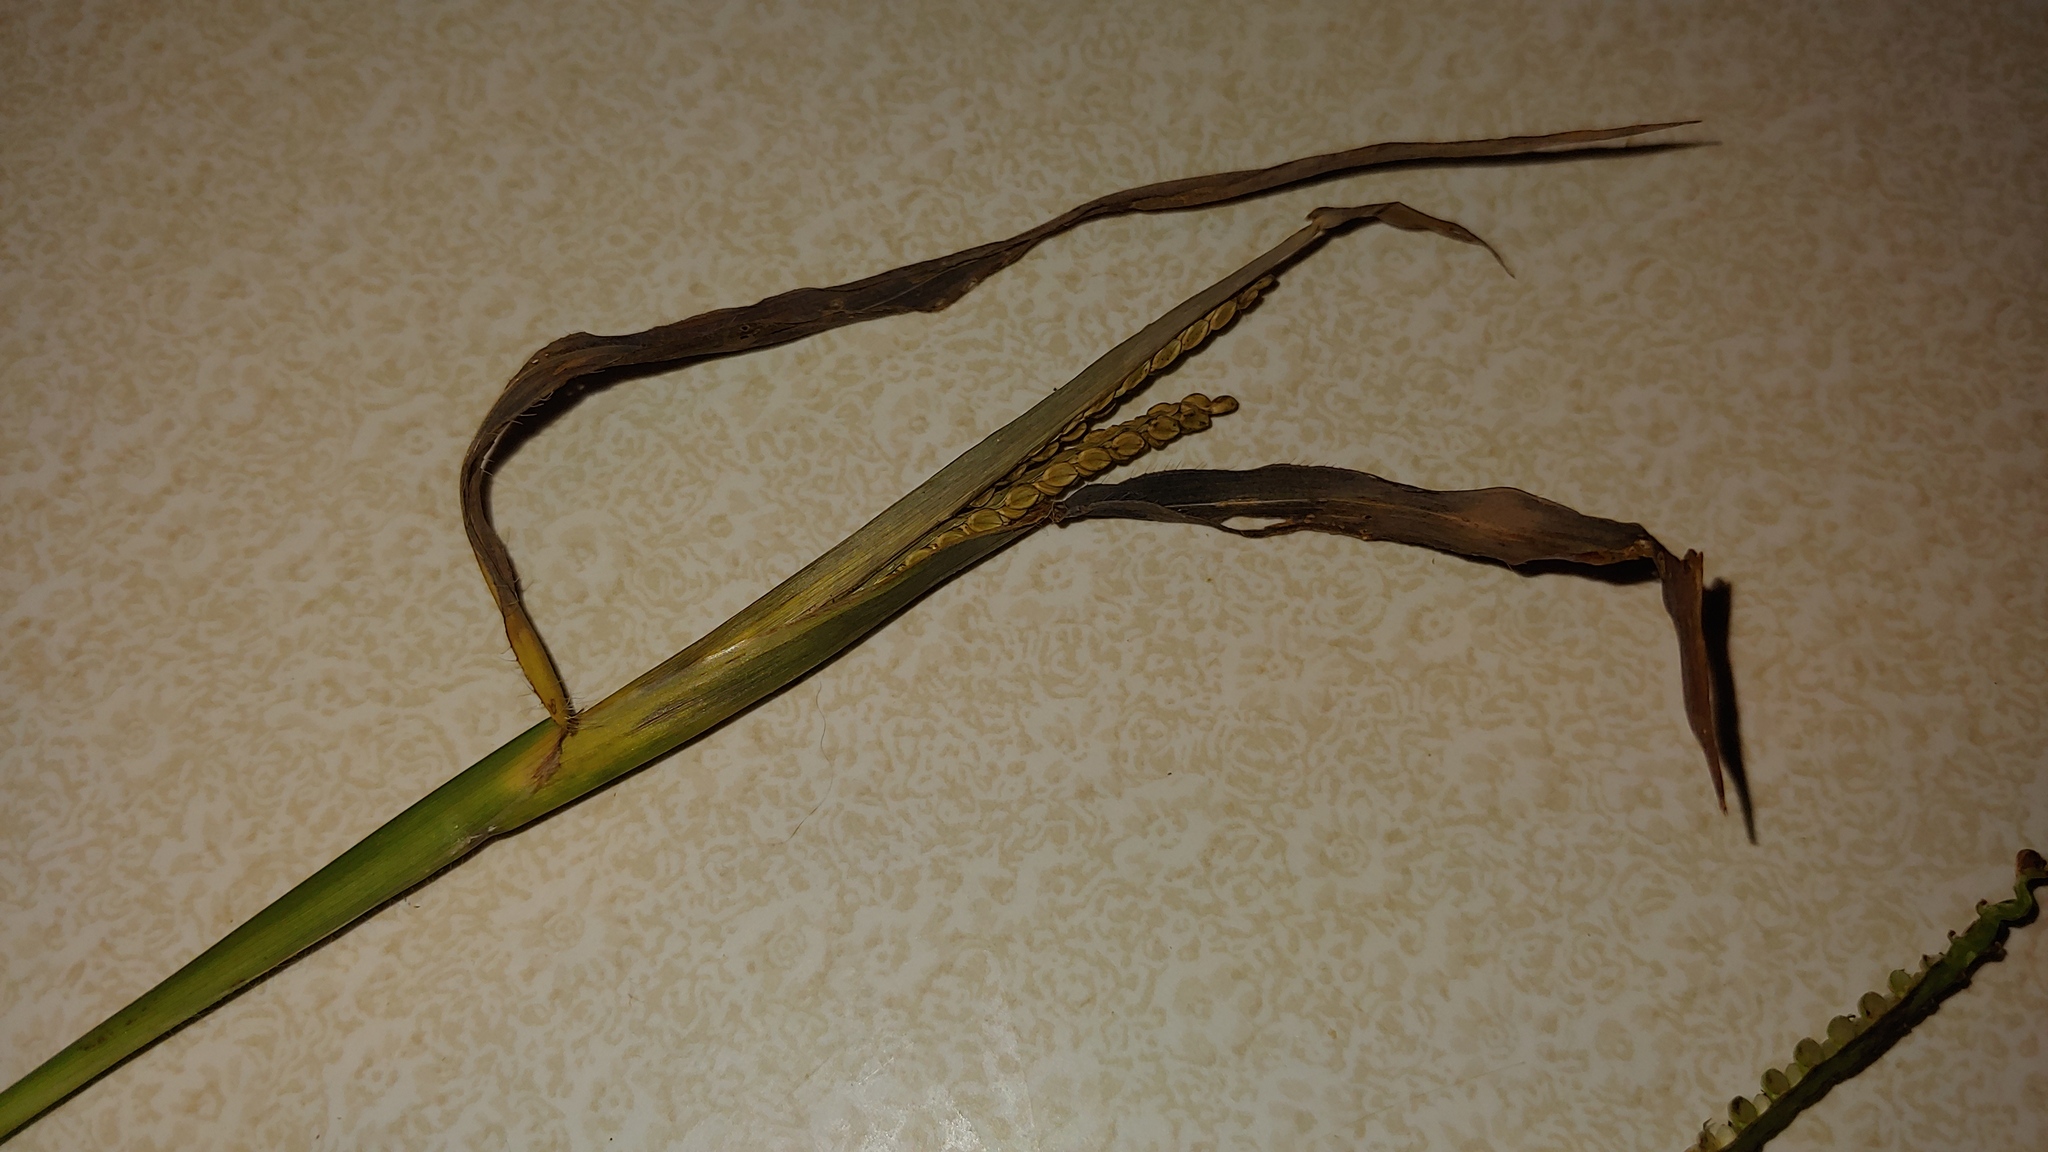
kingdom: Plantae
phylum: Tracheophyta
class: Liliopsida
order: Poales
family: Poaceae
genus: Paspalum
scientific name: Paspalum pubiflorum
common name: Hairy-seed paspalum
